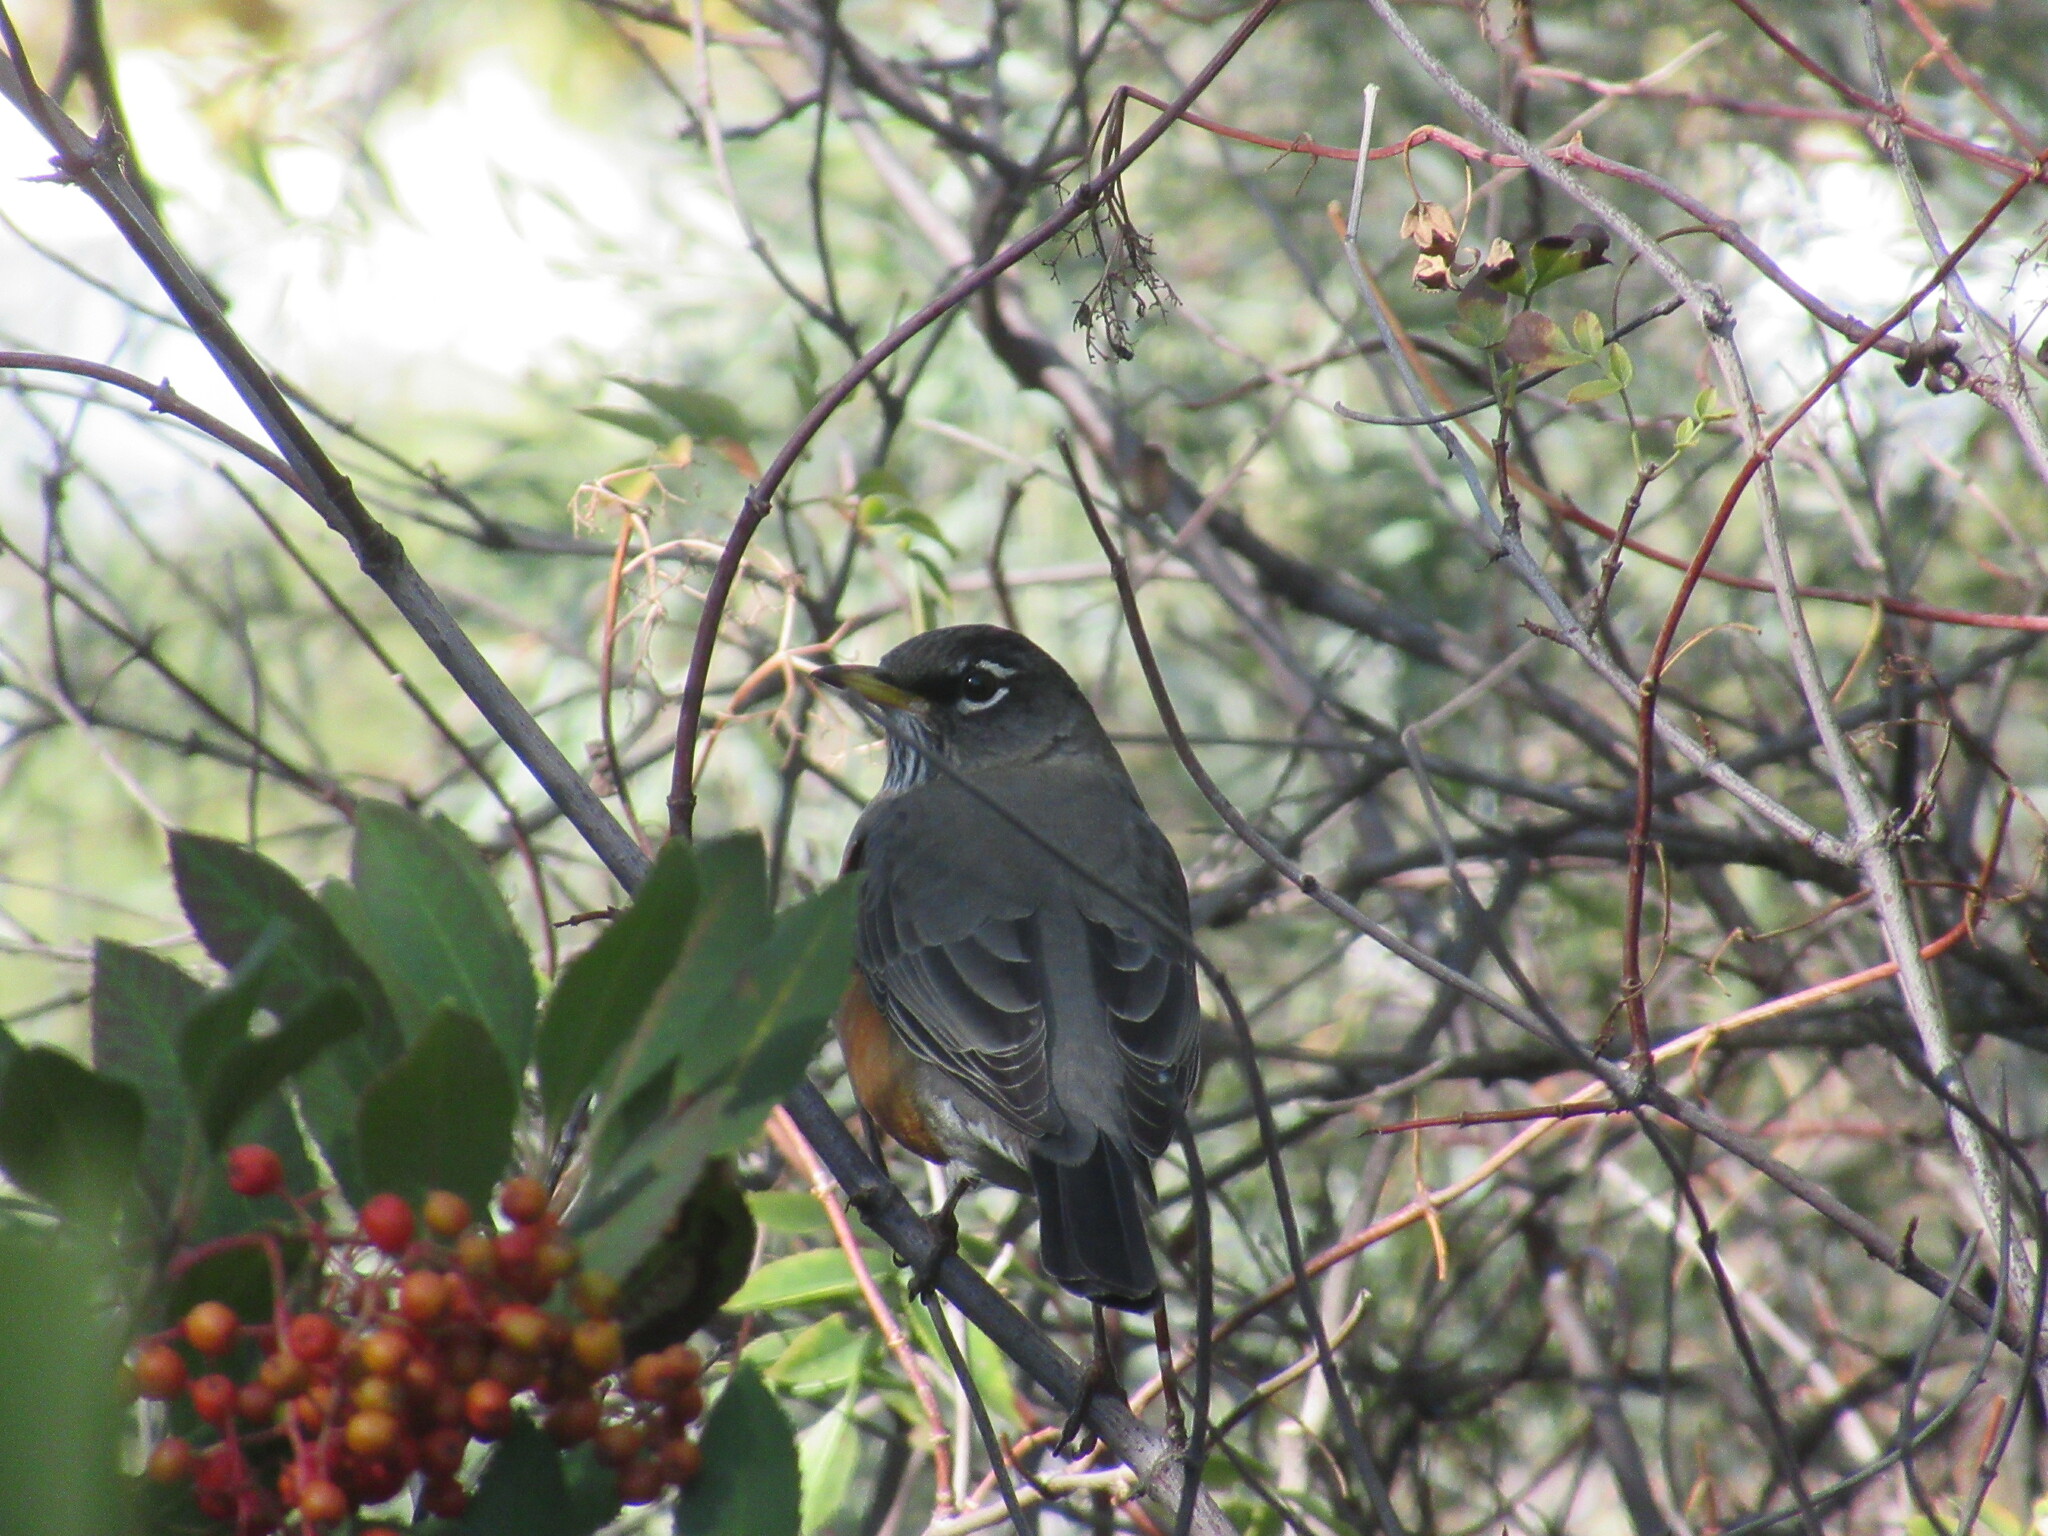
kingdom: Animalia
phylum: Chordata
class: Aves
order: Passeriformes
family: Turdidae
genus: Turdus
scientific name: Turdus migratorius
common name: American robin
